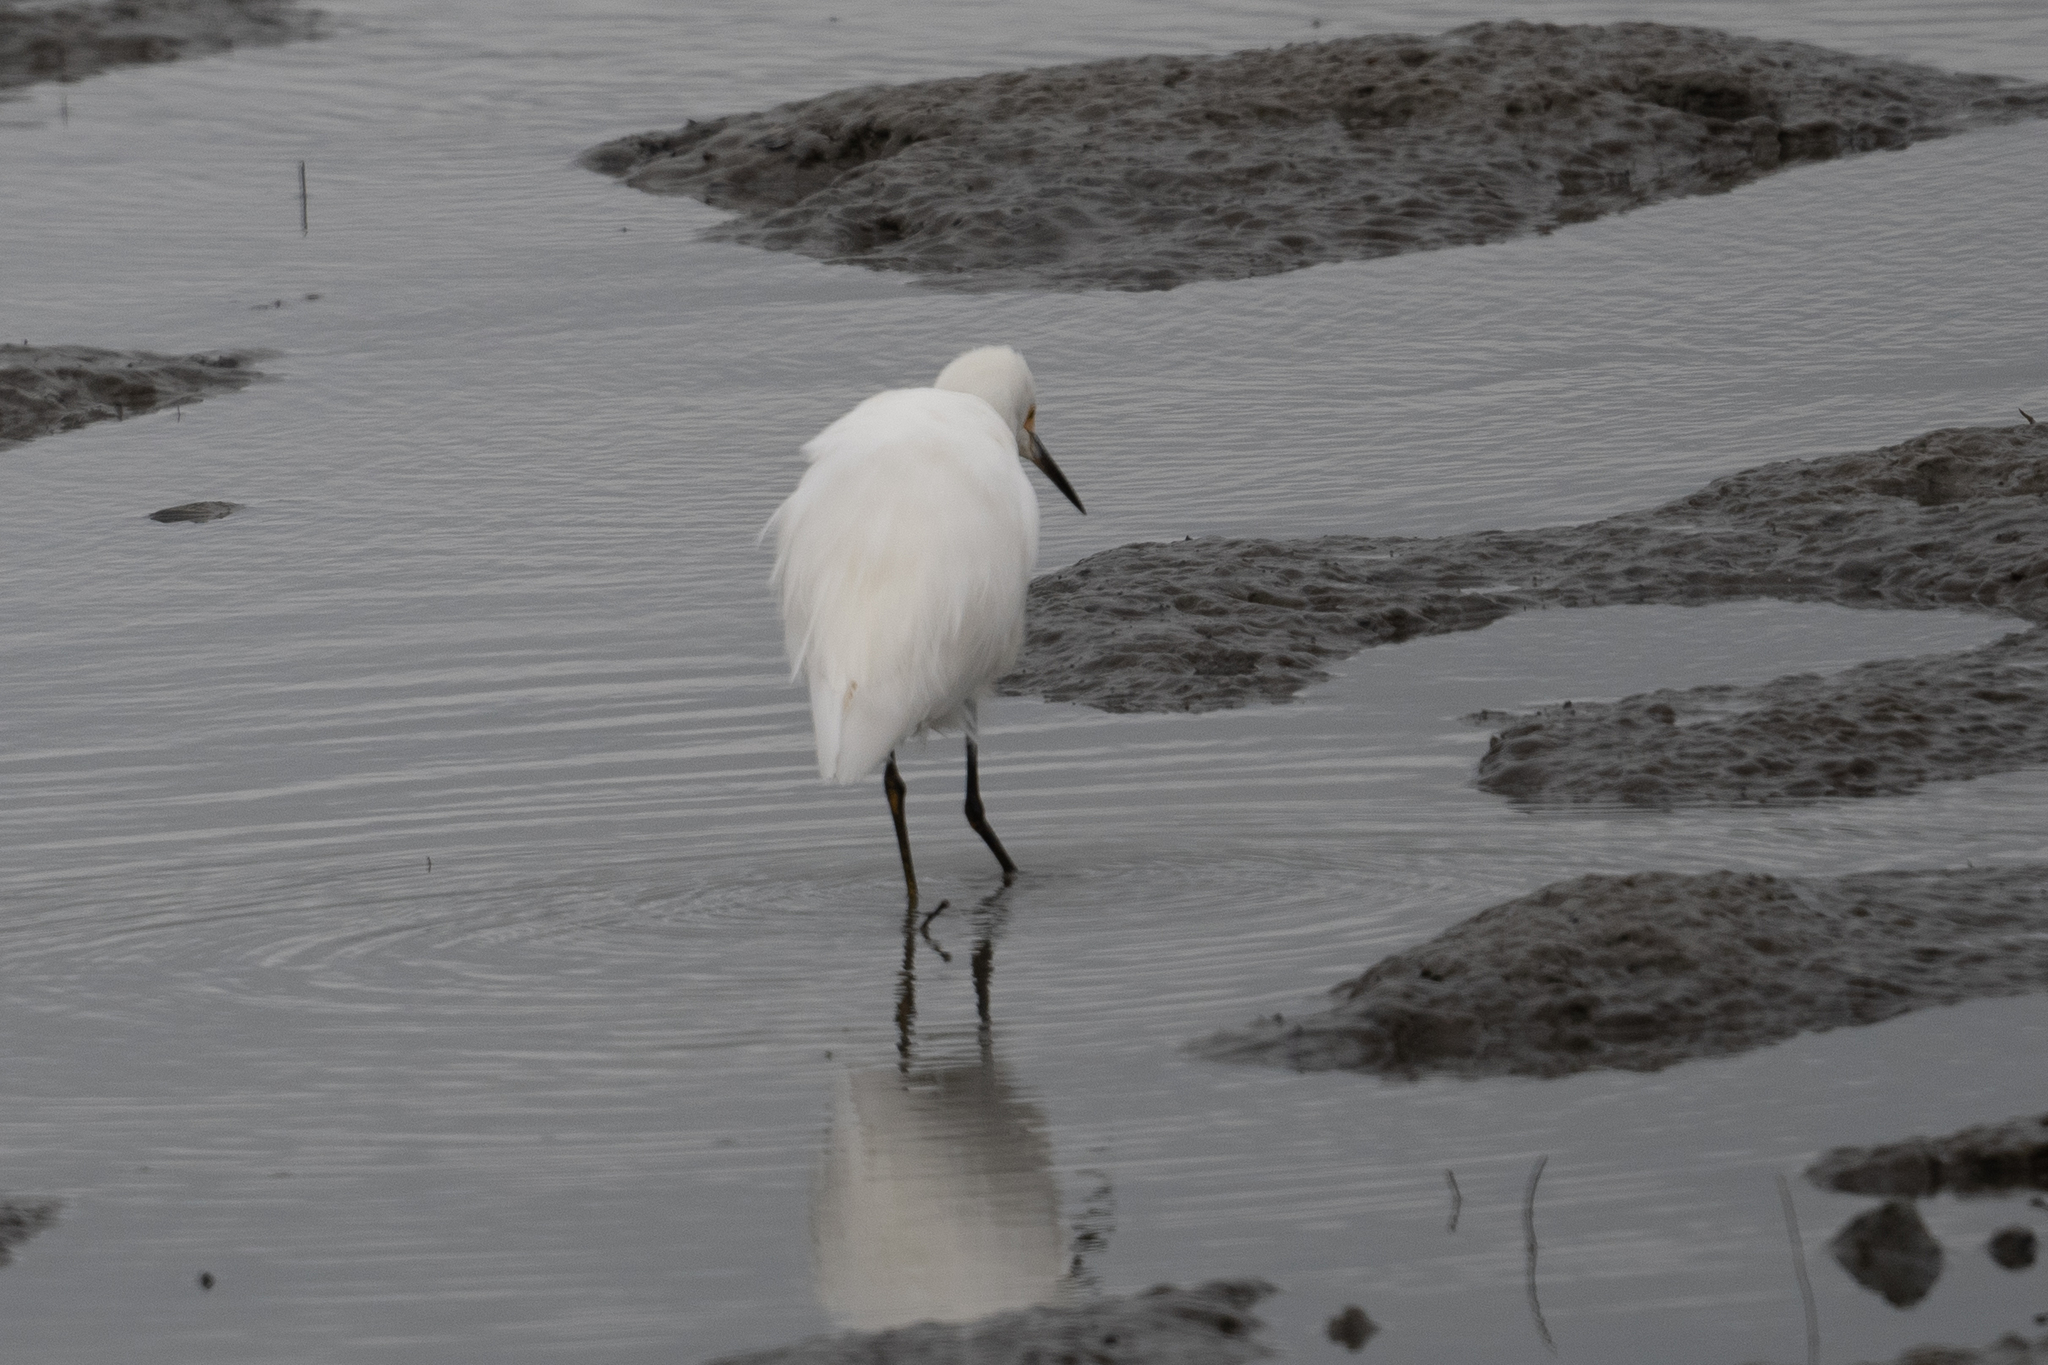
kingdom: Animalia
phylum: Chordata
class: Aves
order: Pelecaniformes
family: Ardeidae
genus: Egretta
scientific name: Egretta thula
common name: Snowy egret
